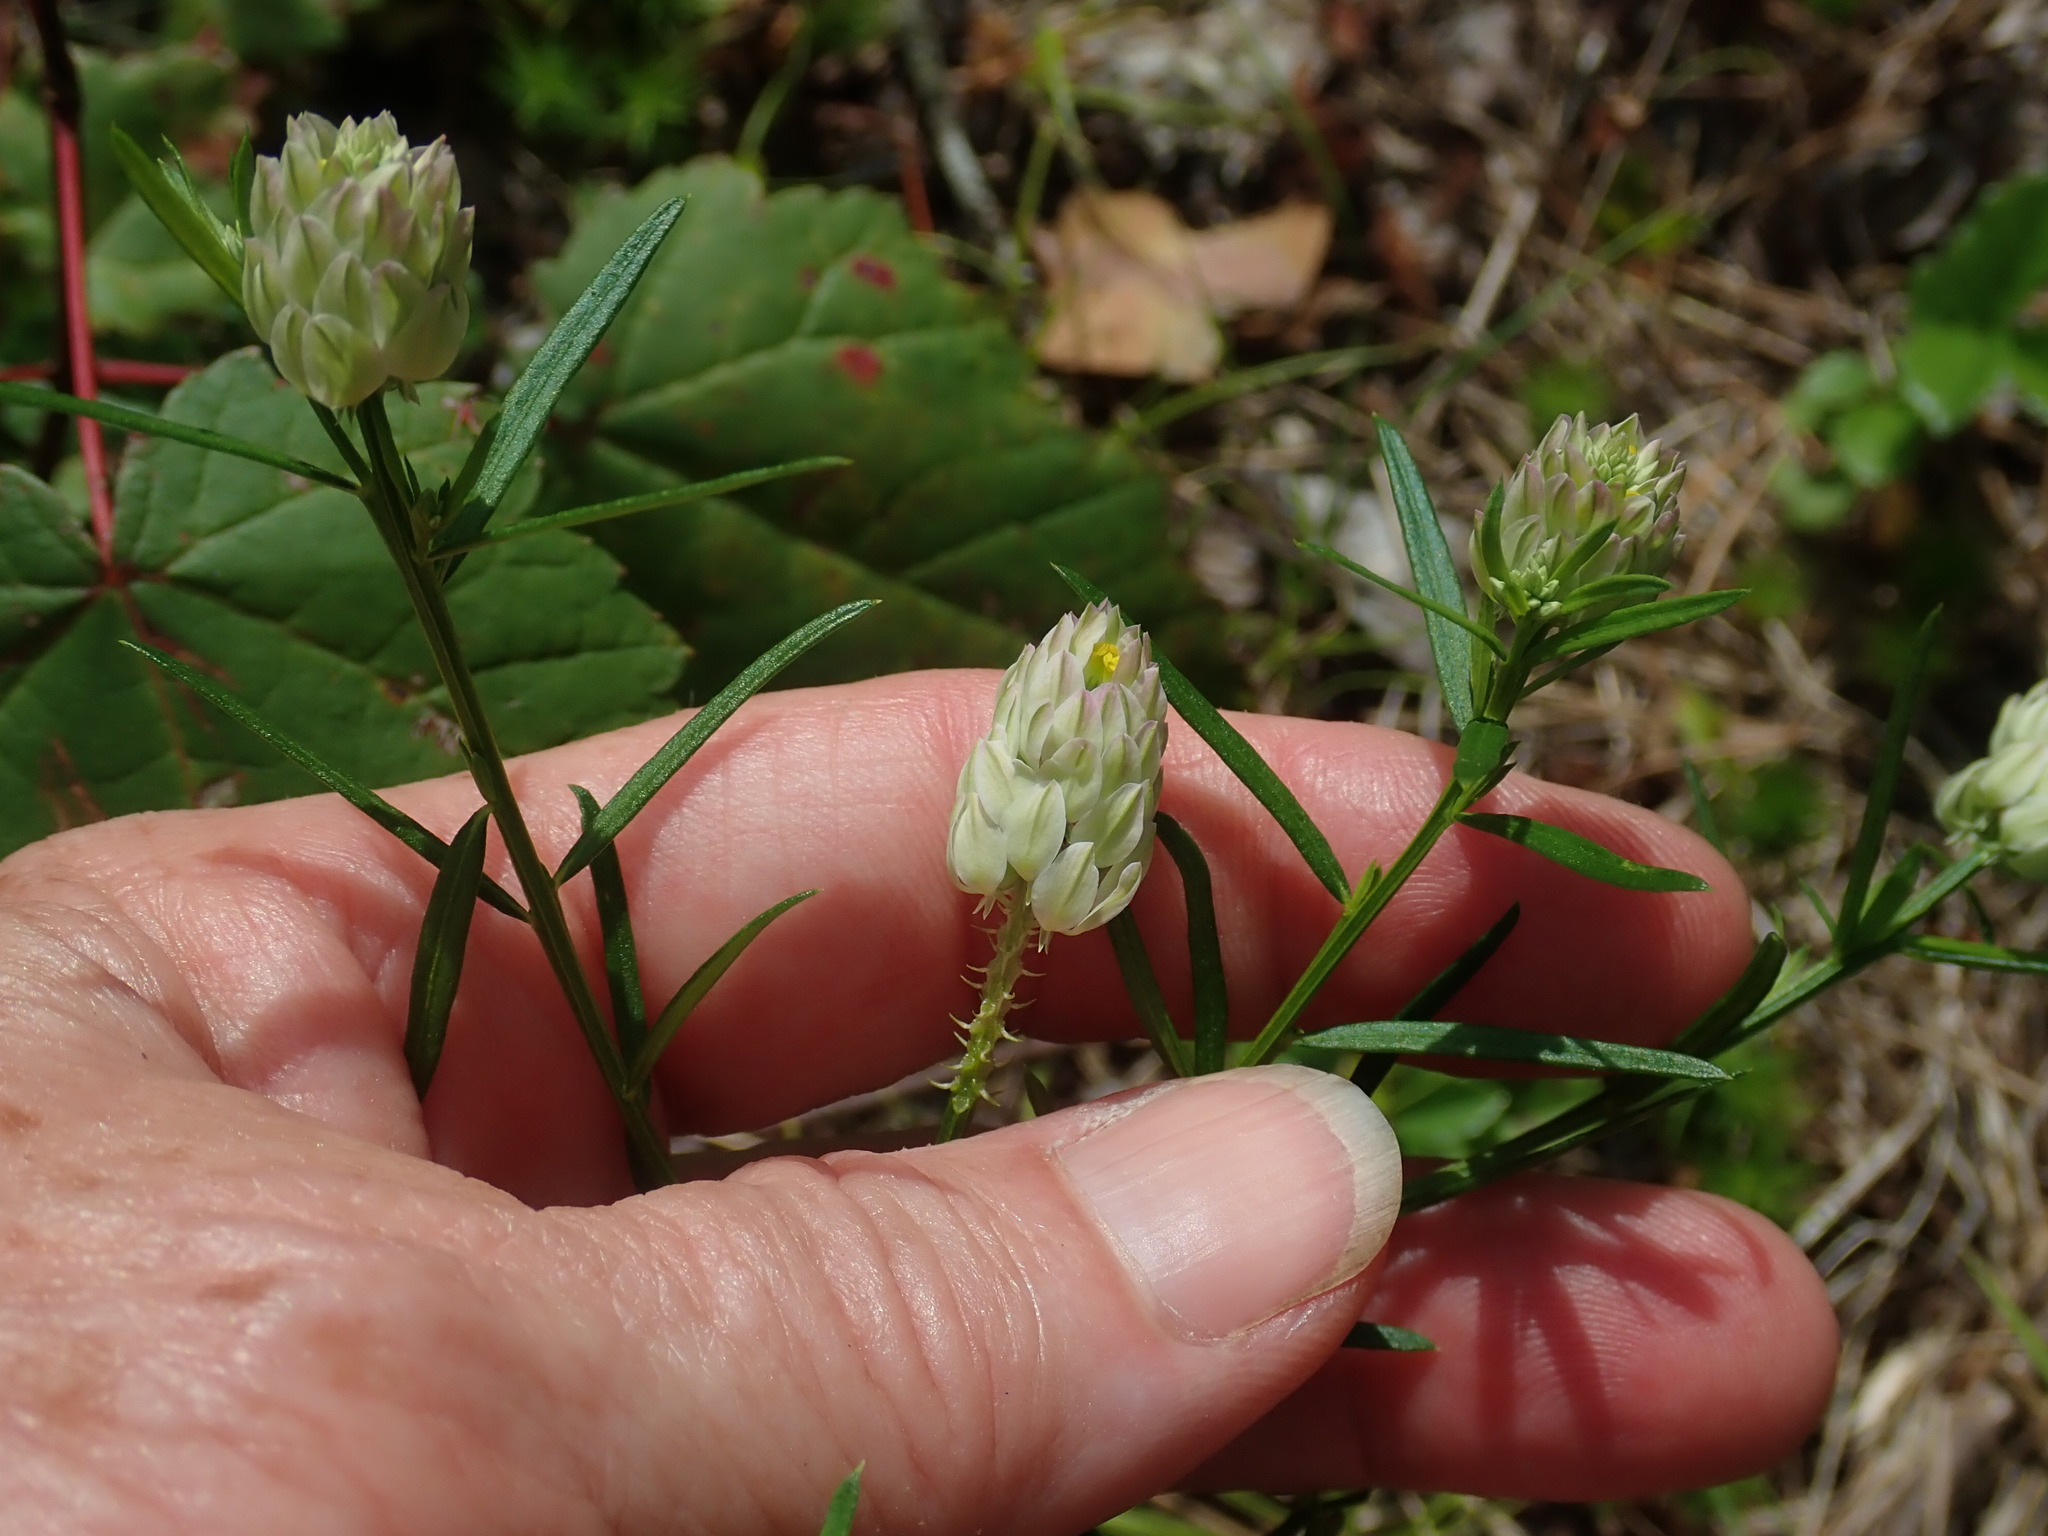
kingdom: Plantae
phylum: Tracheophyta
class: Magnoliopsida
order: Fabales
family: Polygalaceae
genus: Polygala
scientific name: Polygala sanguinea
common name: Blood milkwort
